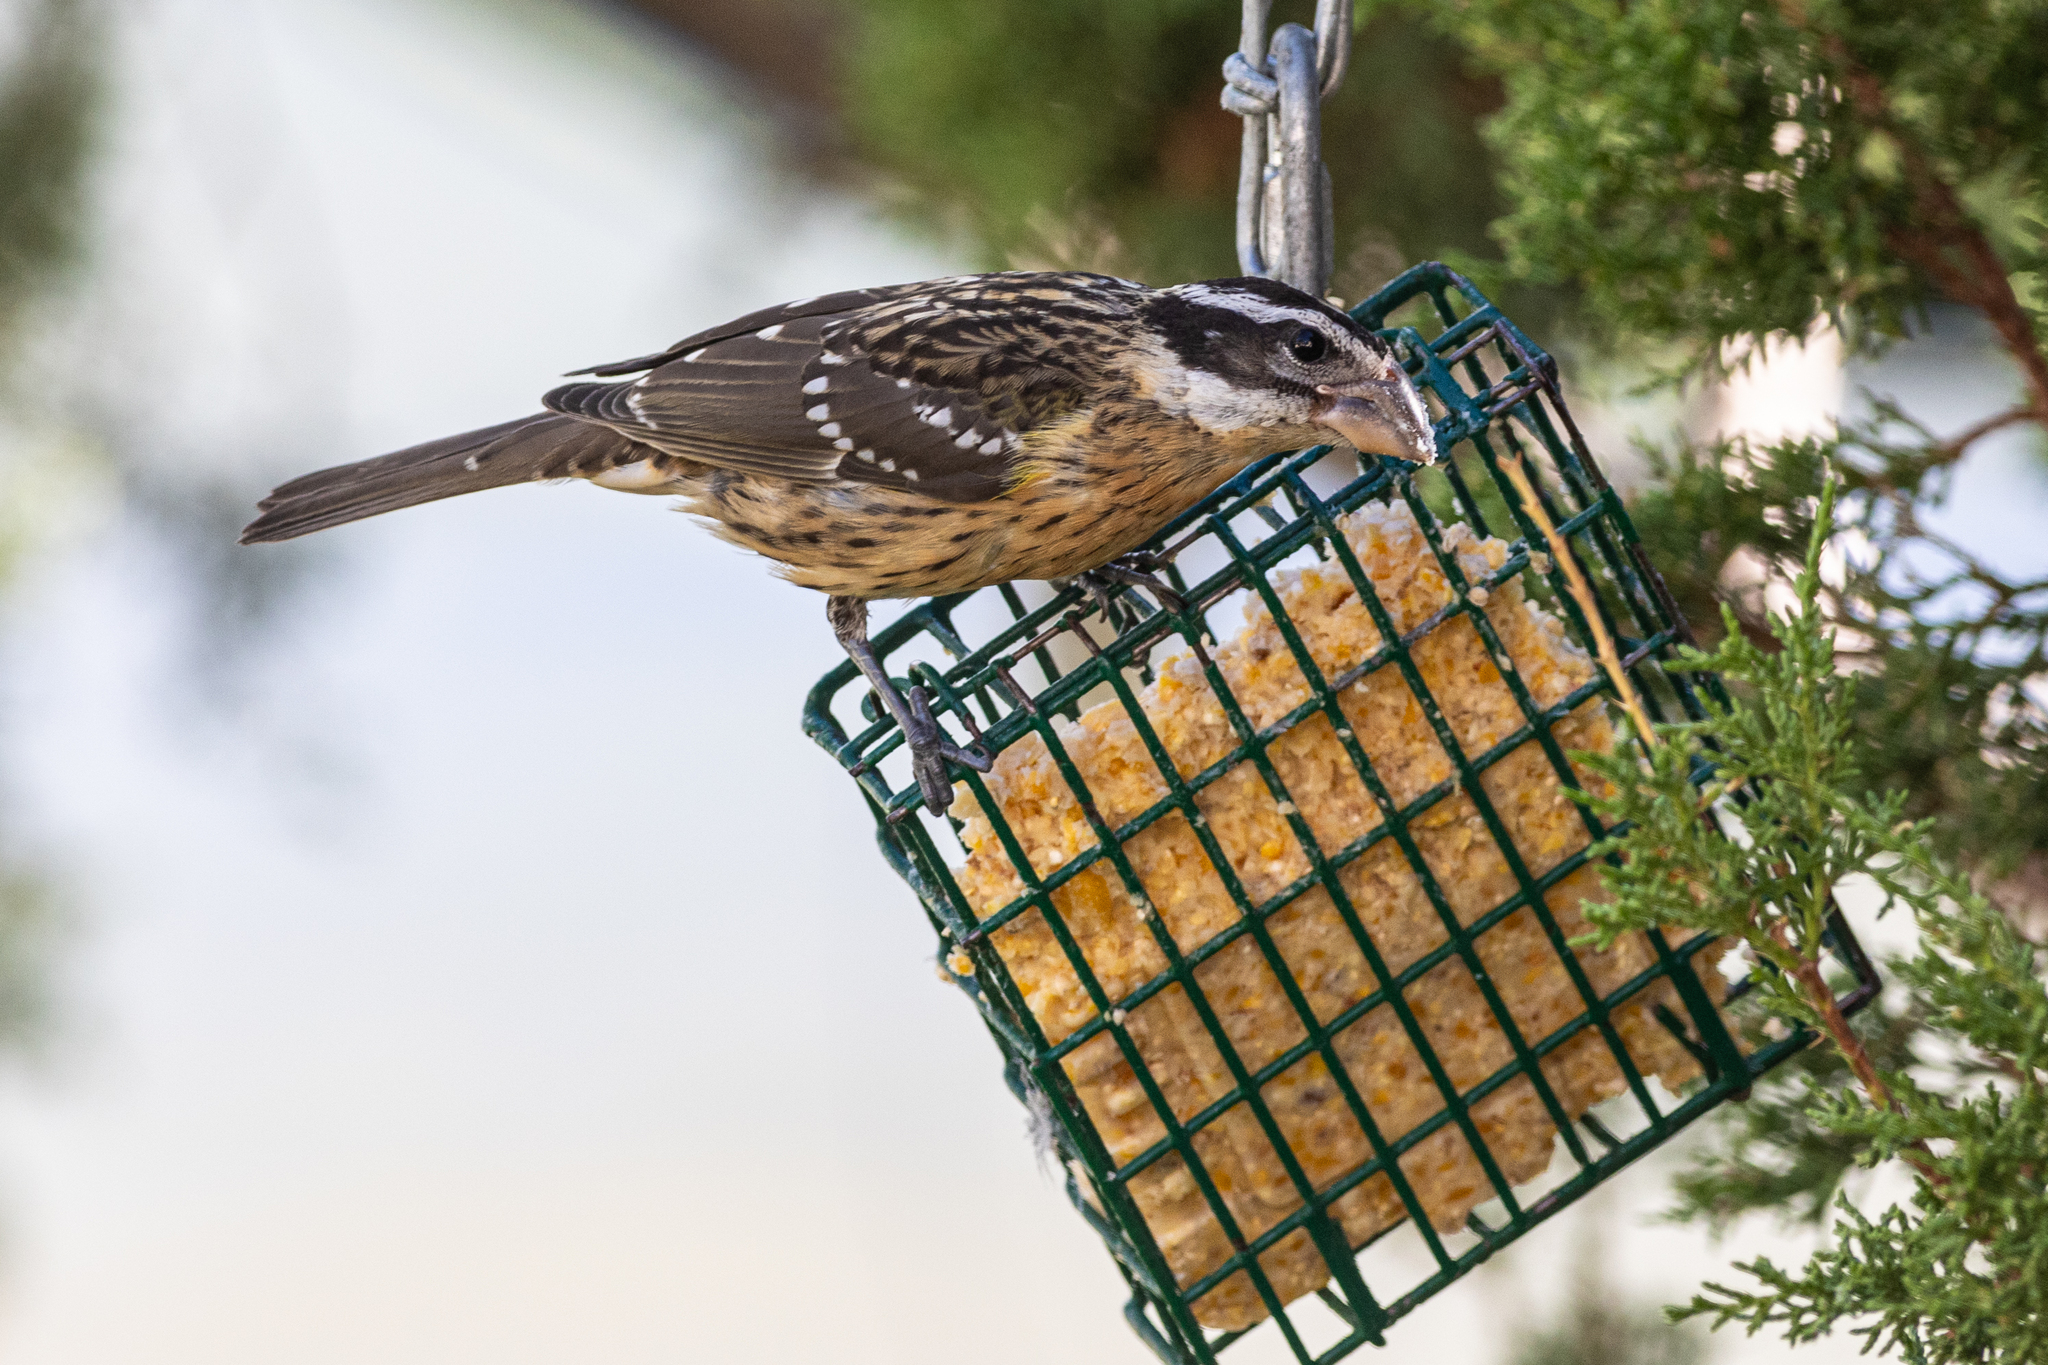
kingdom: Animalia
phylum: Chordata
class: Aves
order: Passeriformes
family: Cardinalidae
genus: Pheucticus
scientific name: Pheucticus melanocephalus
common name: Black-headed grosbeak
